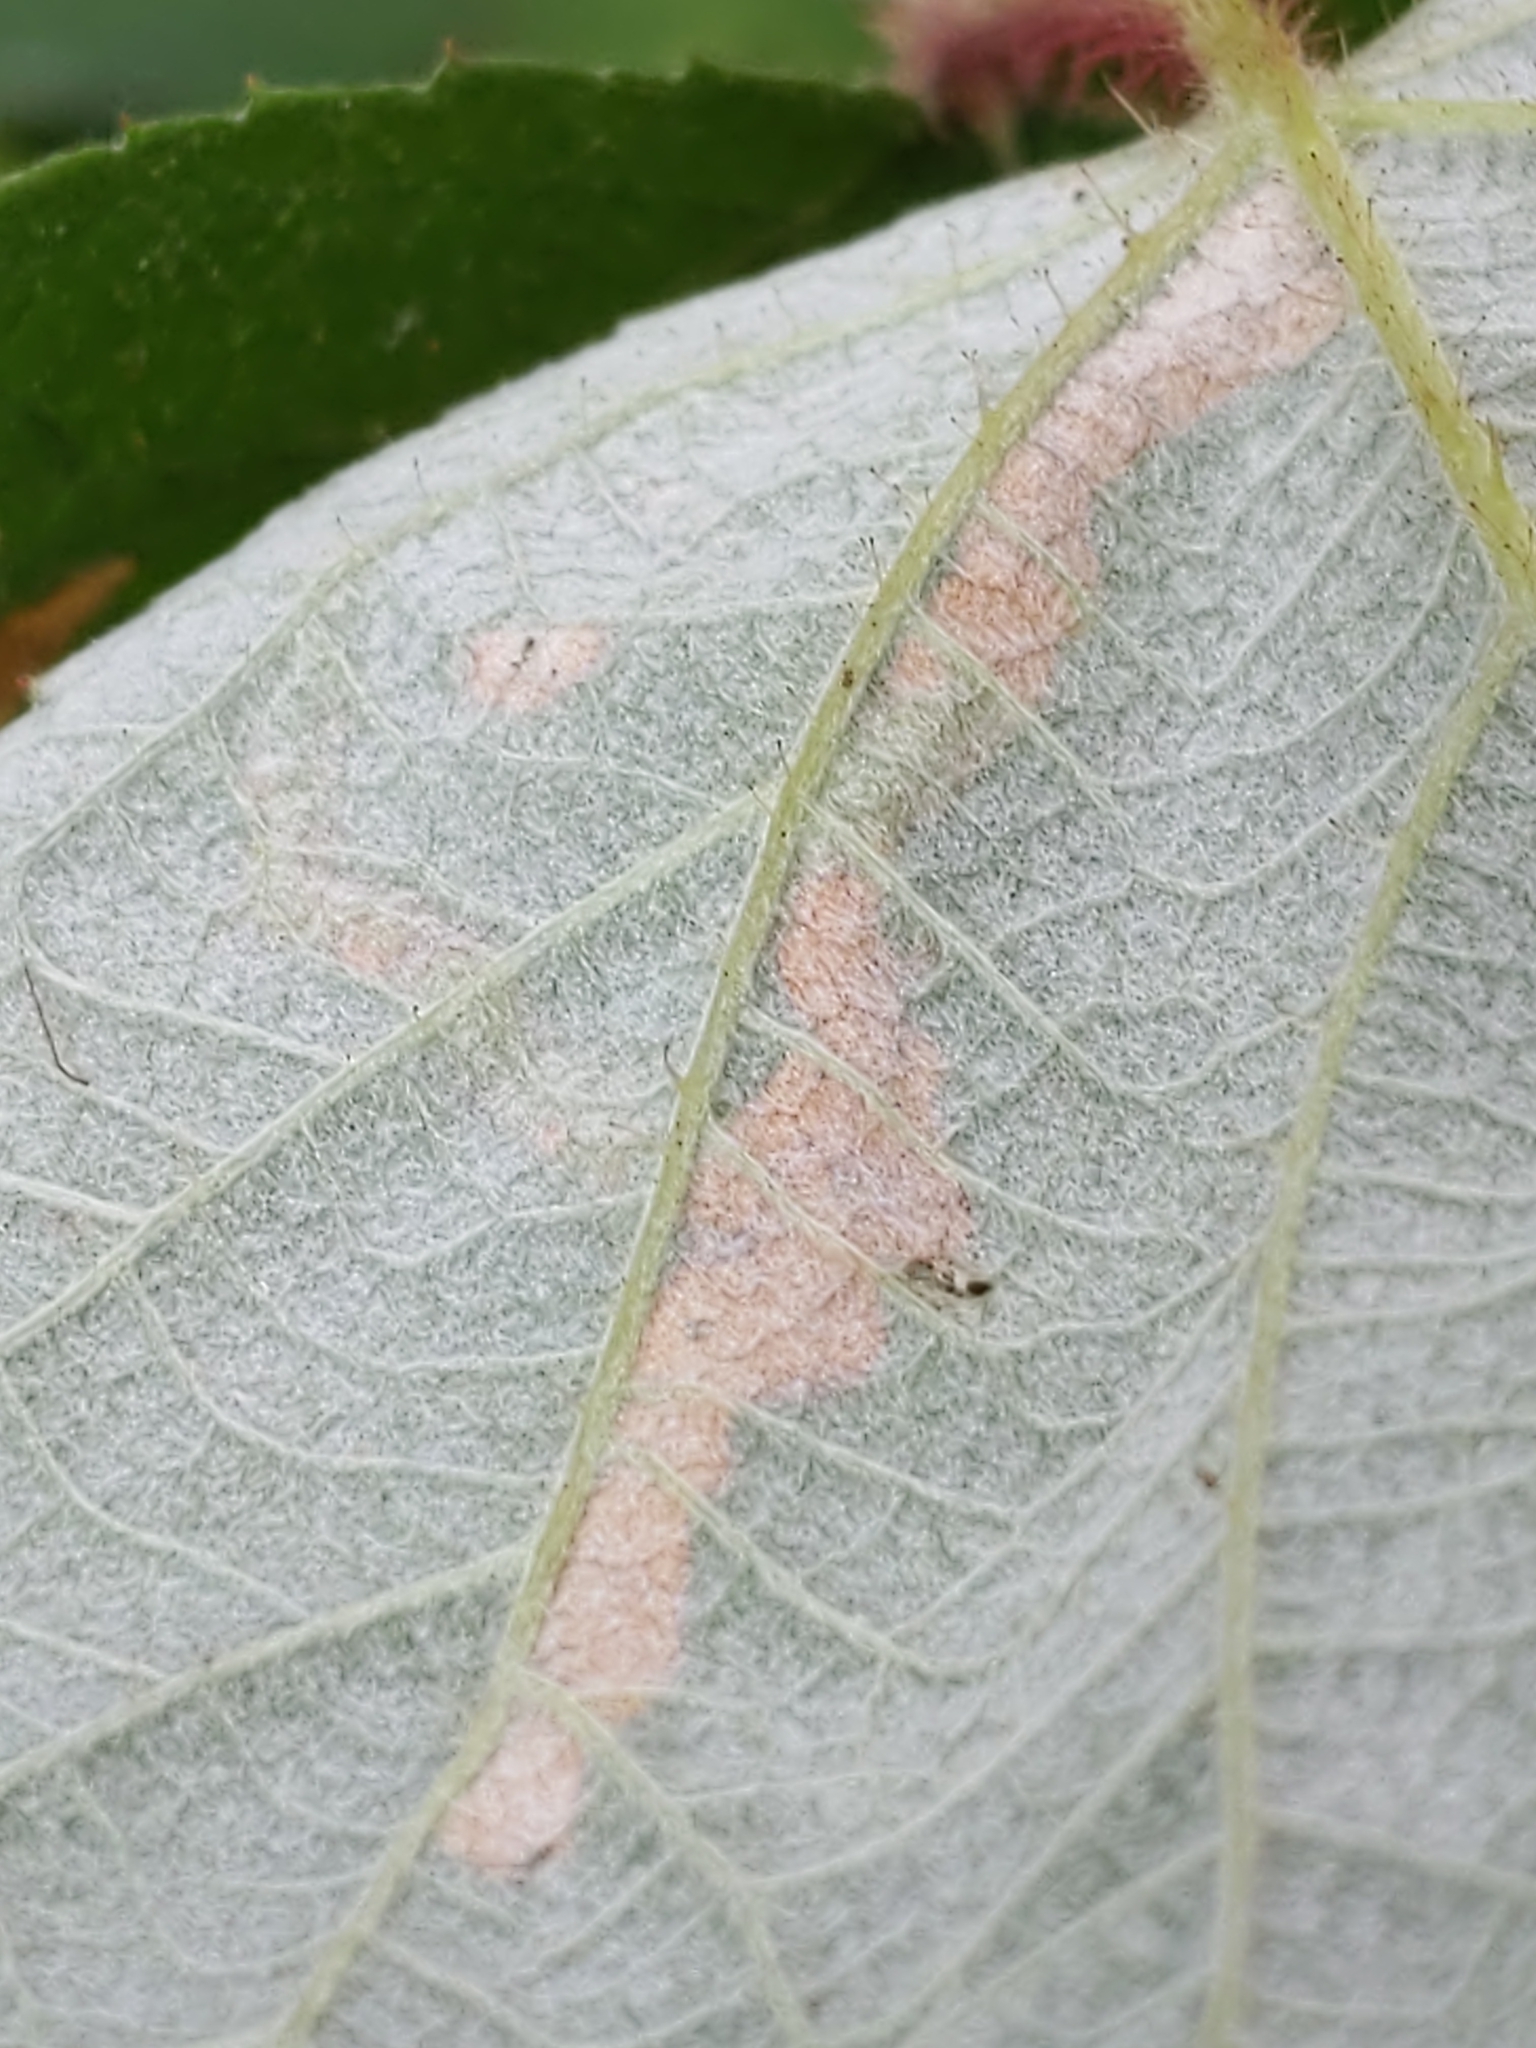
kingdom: Animalia
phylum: Arthropoda
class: Insecta
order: Diptera
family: Agromyzidae
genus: Agromyza
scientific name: Agromyza vockerothi
